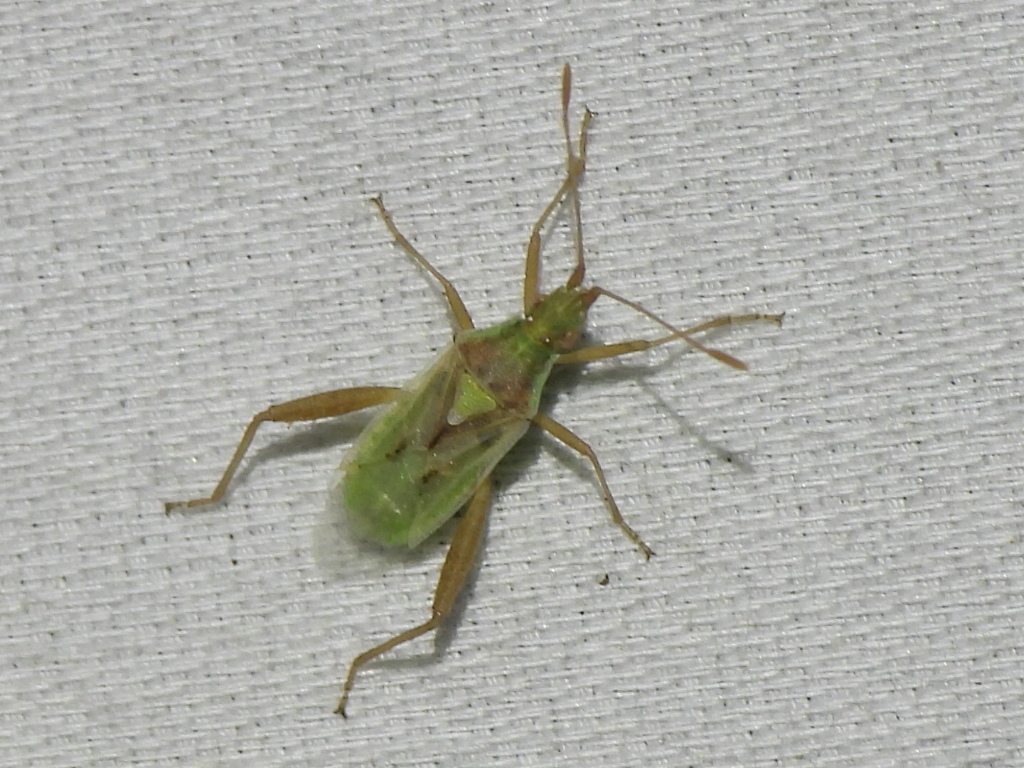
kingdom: Animalia
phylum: Arthropoda
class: Insecta
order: Hemiptera
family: Rhopalidae
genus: Harmostes
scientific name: Harmostes reflexulus
